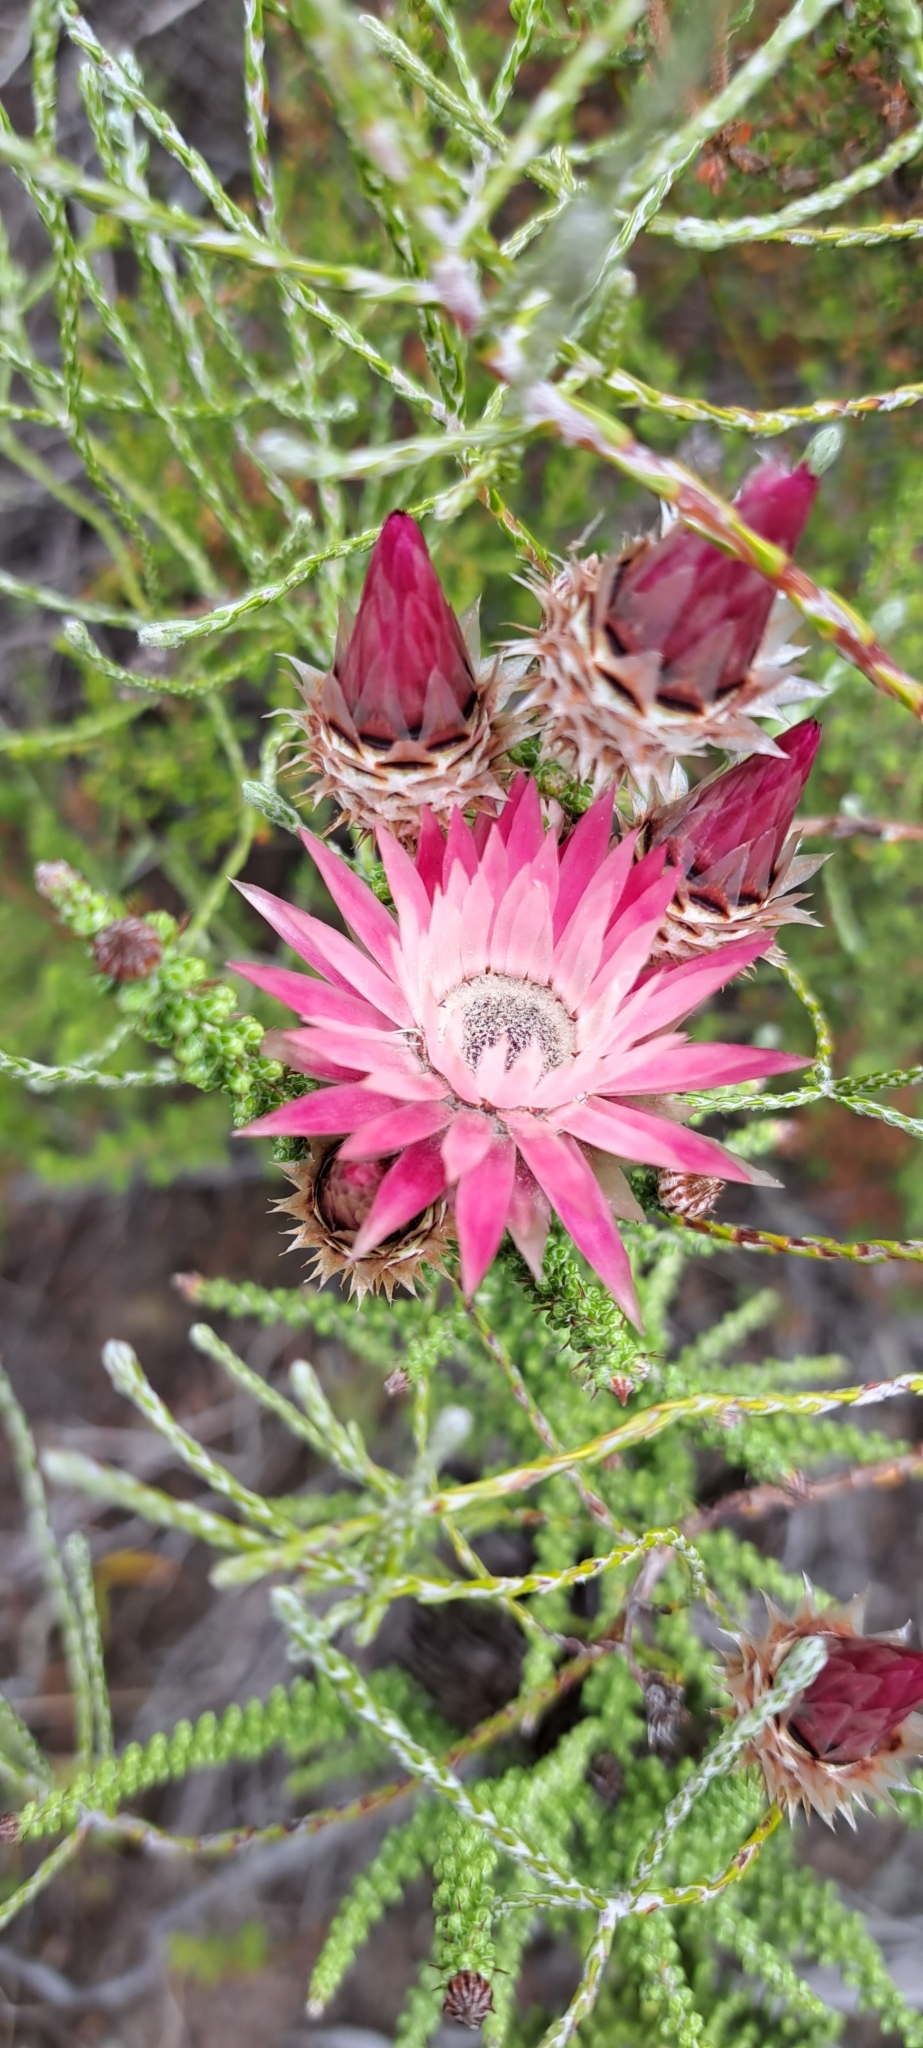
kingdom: Plantae
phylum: Tracheophyta
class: Magnoliopsida
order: Asterales
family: Asteraceae
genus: Phaenocoma
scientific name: Phaenocoma prolifera
